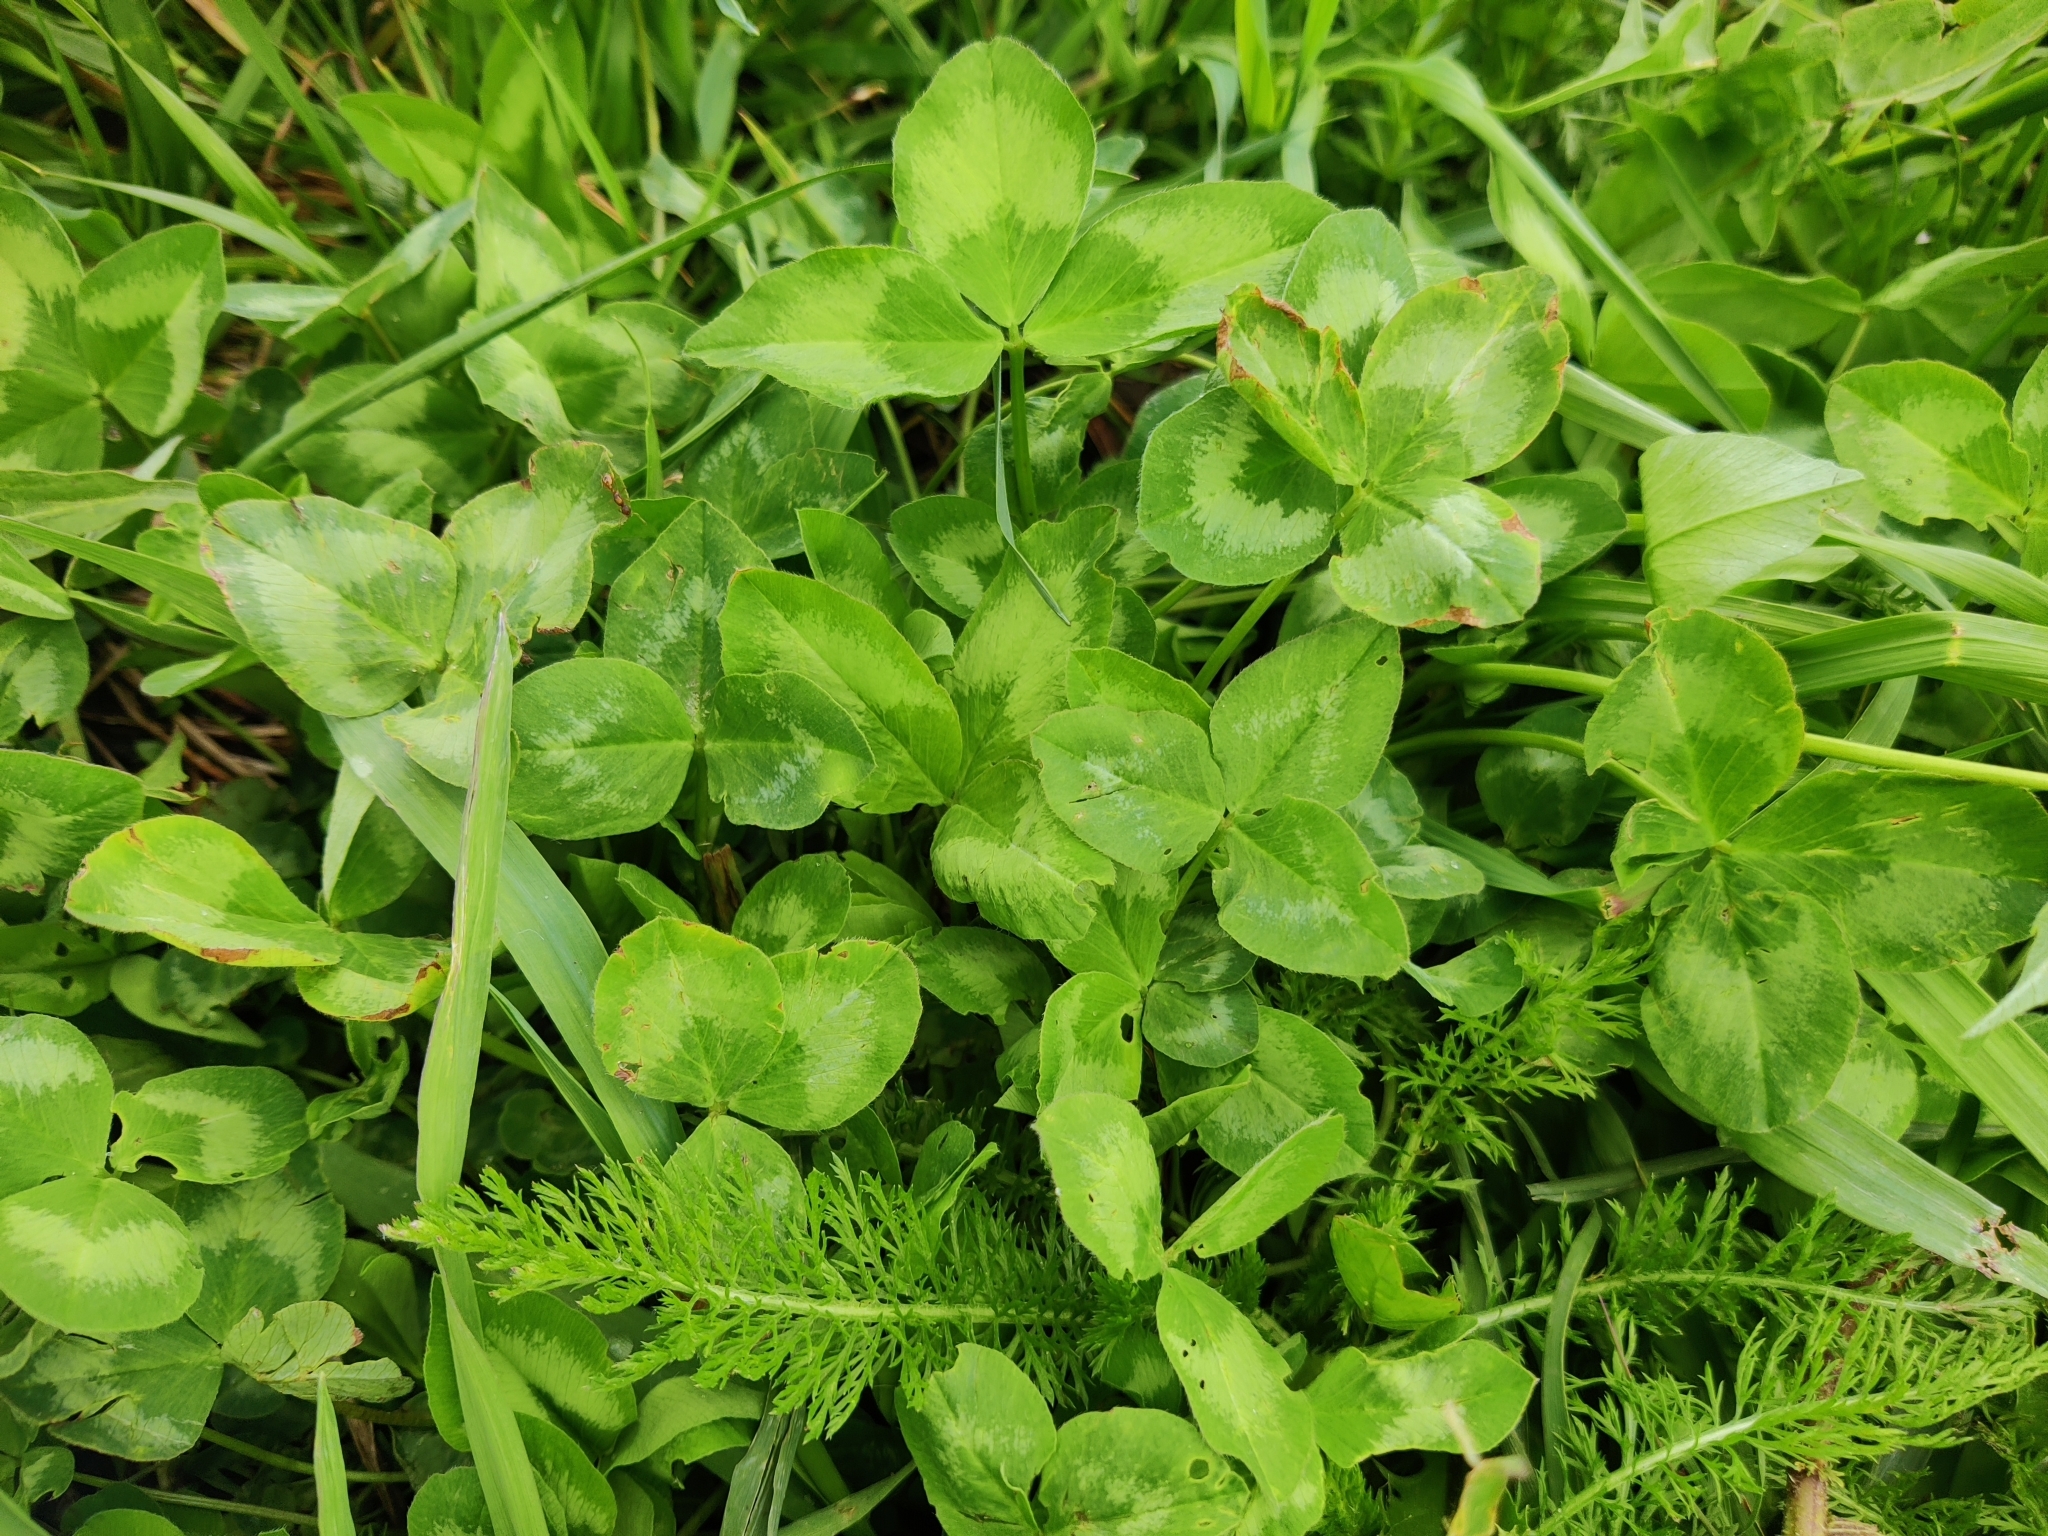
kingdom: Plantae
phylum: Tracheophyta
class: Magnoliopsida
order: Fabales
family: Fabaceae
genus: Trifolium
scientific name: Trifolium pratense
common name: Red clover
